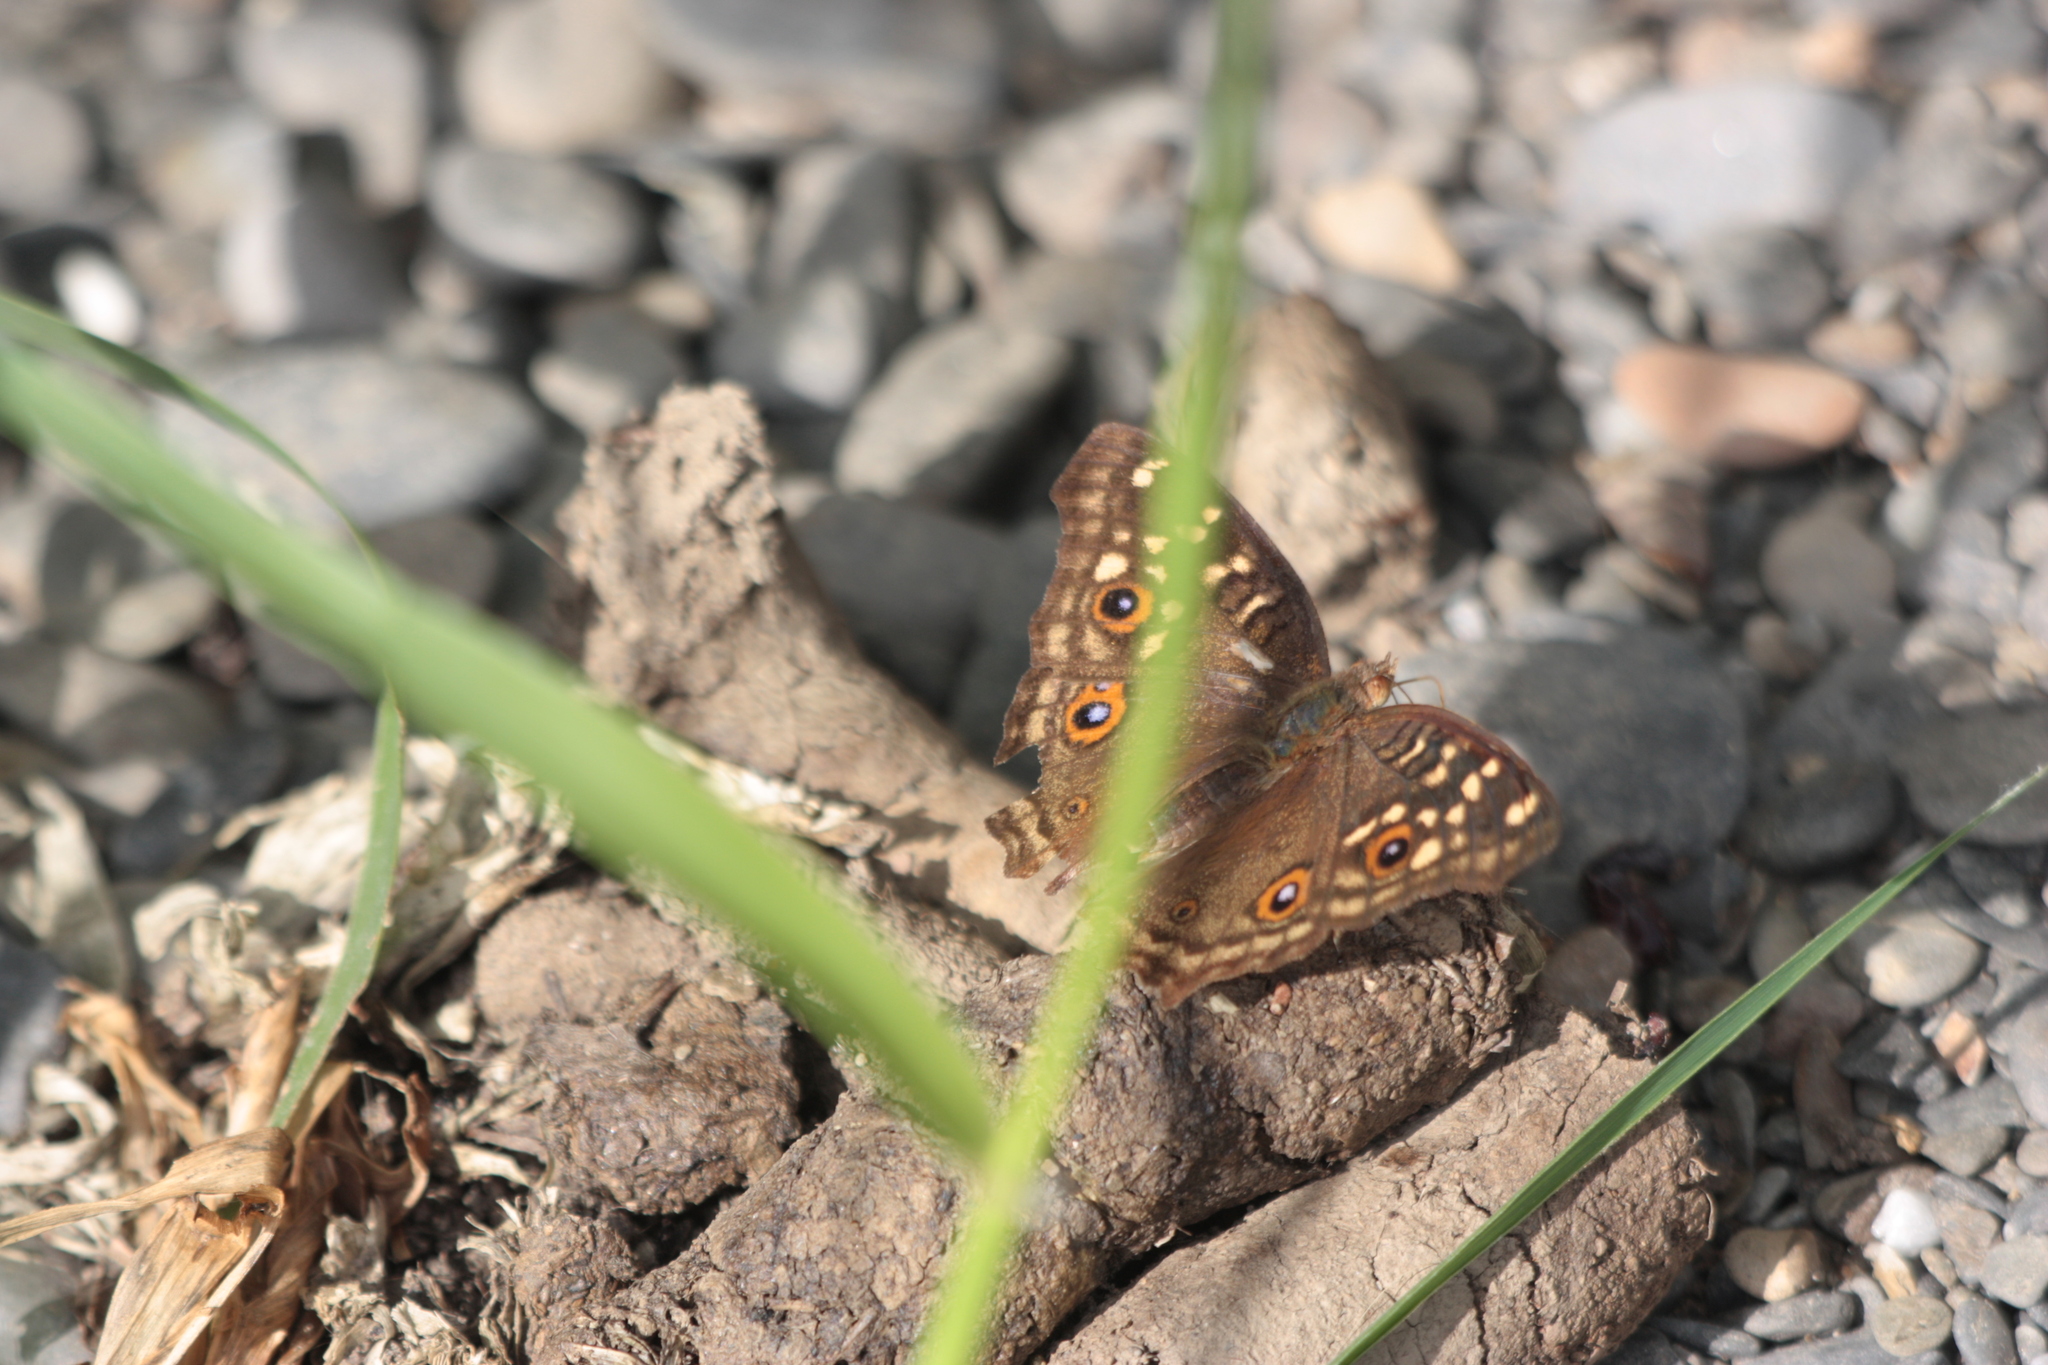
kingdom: Animalia
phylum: Arthropoda
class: Insecta
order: Lepidoptera
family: Nymphalidae
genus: Junonia
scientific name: Junonia lemonias
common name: Lemon pansy
